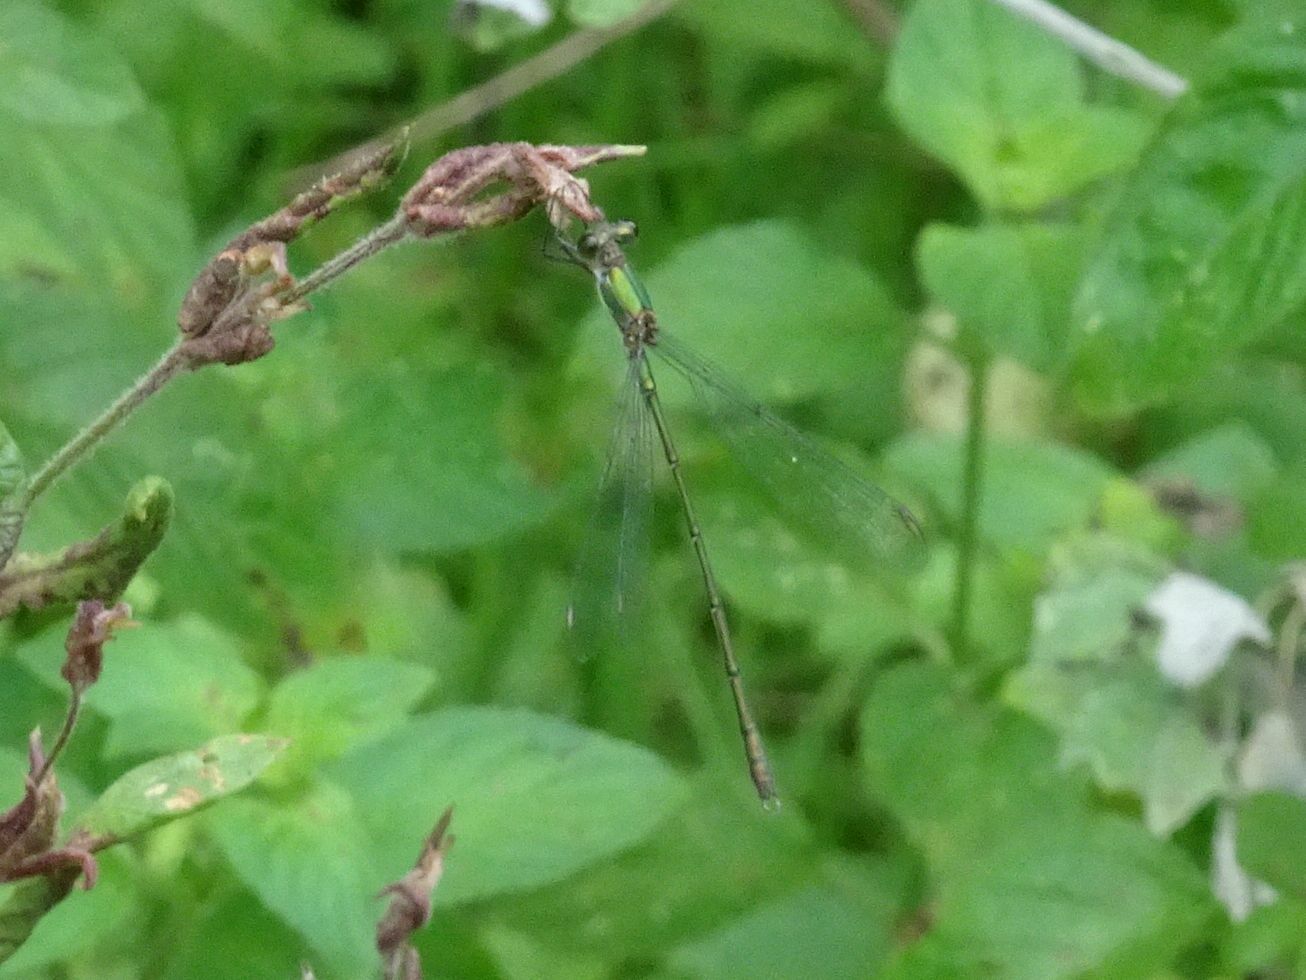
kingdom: Animalia
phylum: Arthropoda
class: Insecta
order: Odonata
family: Lestidae
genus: Chalcolestes
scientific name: Chalcolestes viridis
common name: Green emerald damselfly
